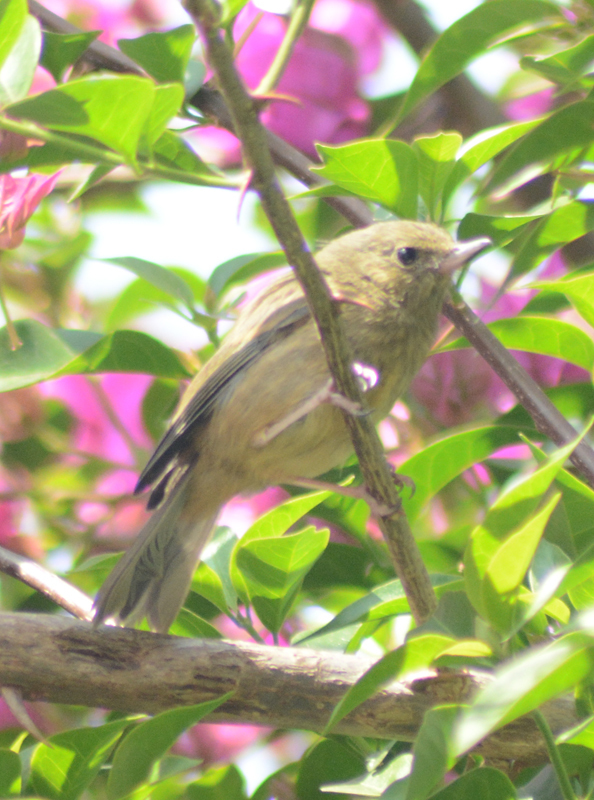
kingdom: Animalia
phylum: Chordata
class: Aves
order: Passeriformes
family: Thraupidae
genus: Diglossa
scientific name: Diglossa baritula
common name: Cinnamon-bellied flowerpiercer
